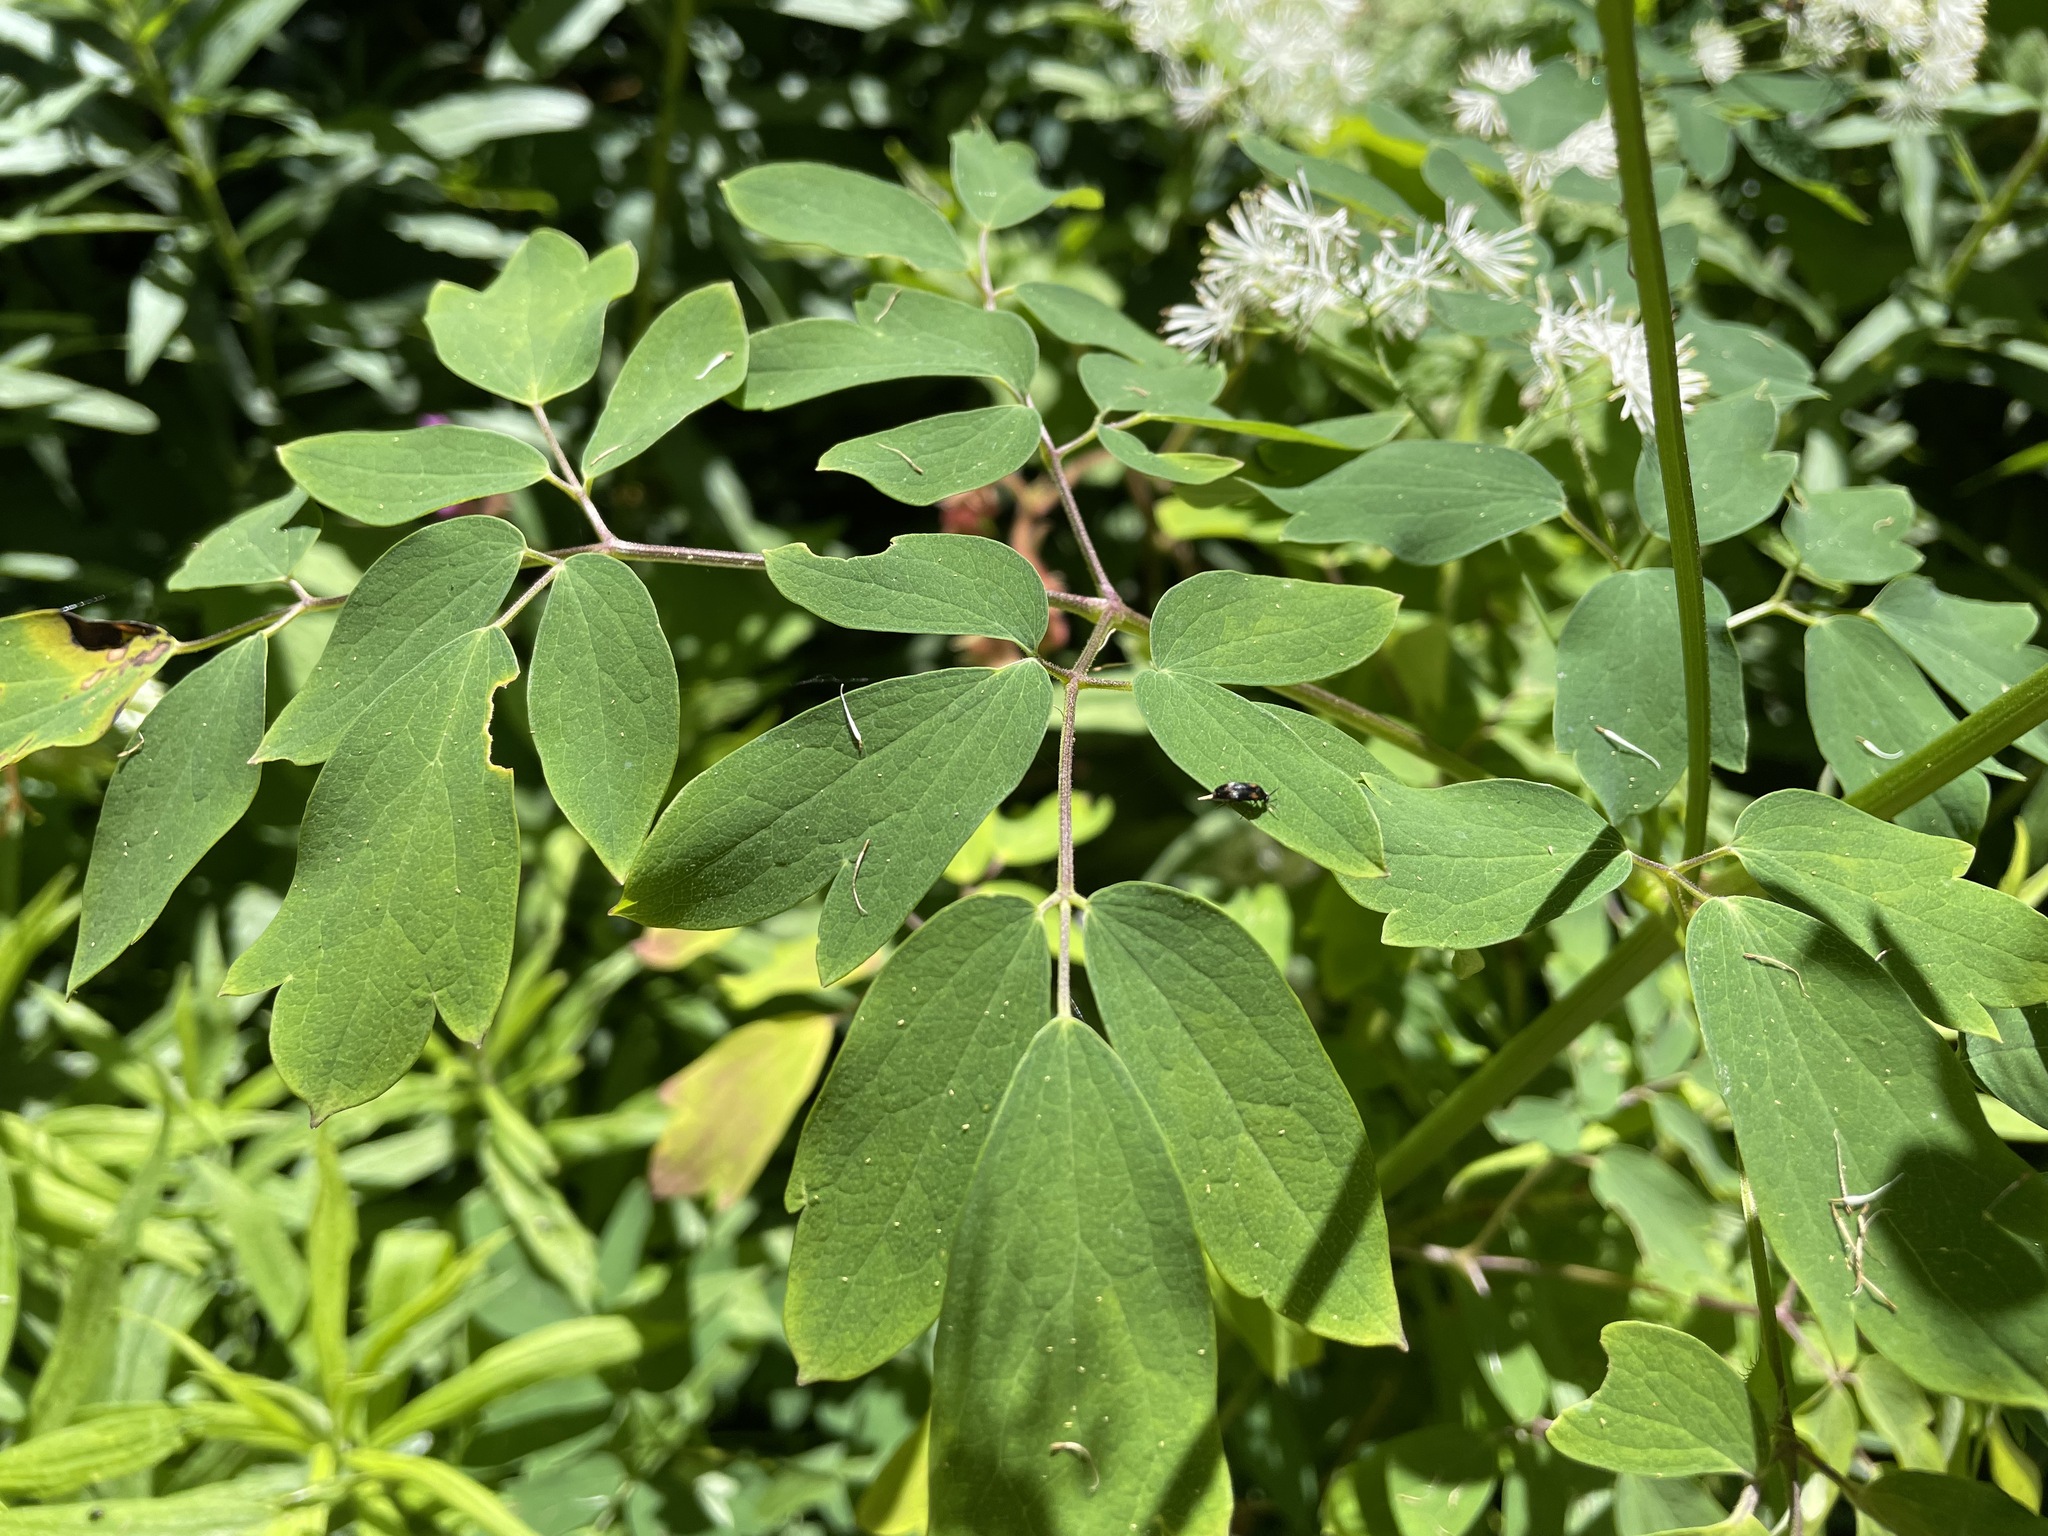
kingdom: Plantae
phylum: Tracheophyta
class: Magnoliopsida
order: Ranunculales
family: Ranunculaceae
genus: Thalictrum
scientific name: Thalictrum pubescens
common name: King-of-the-meadow
